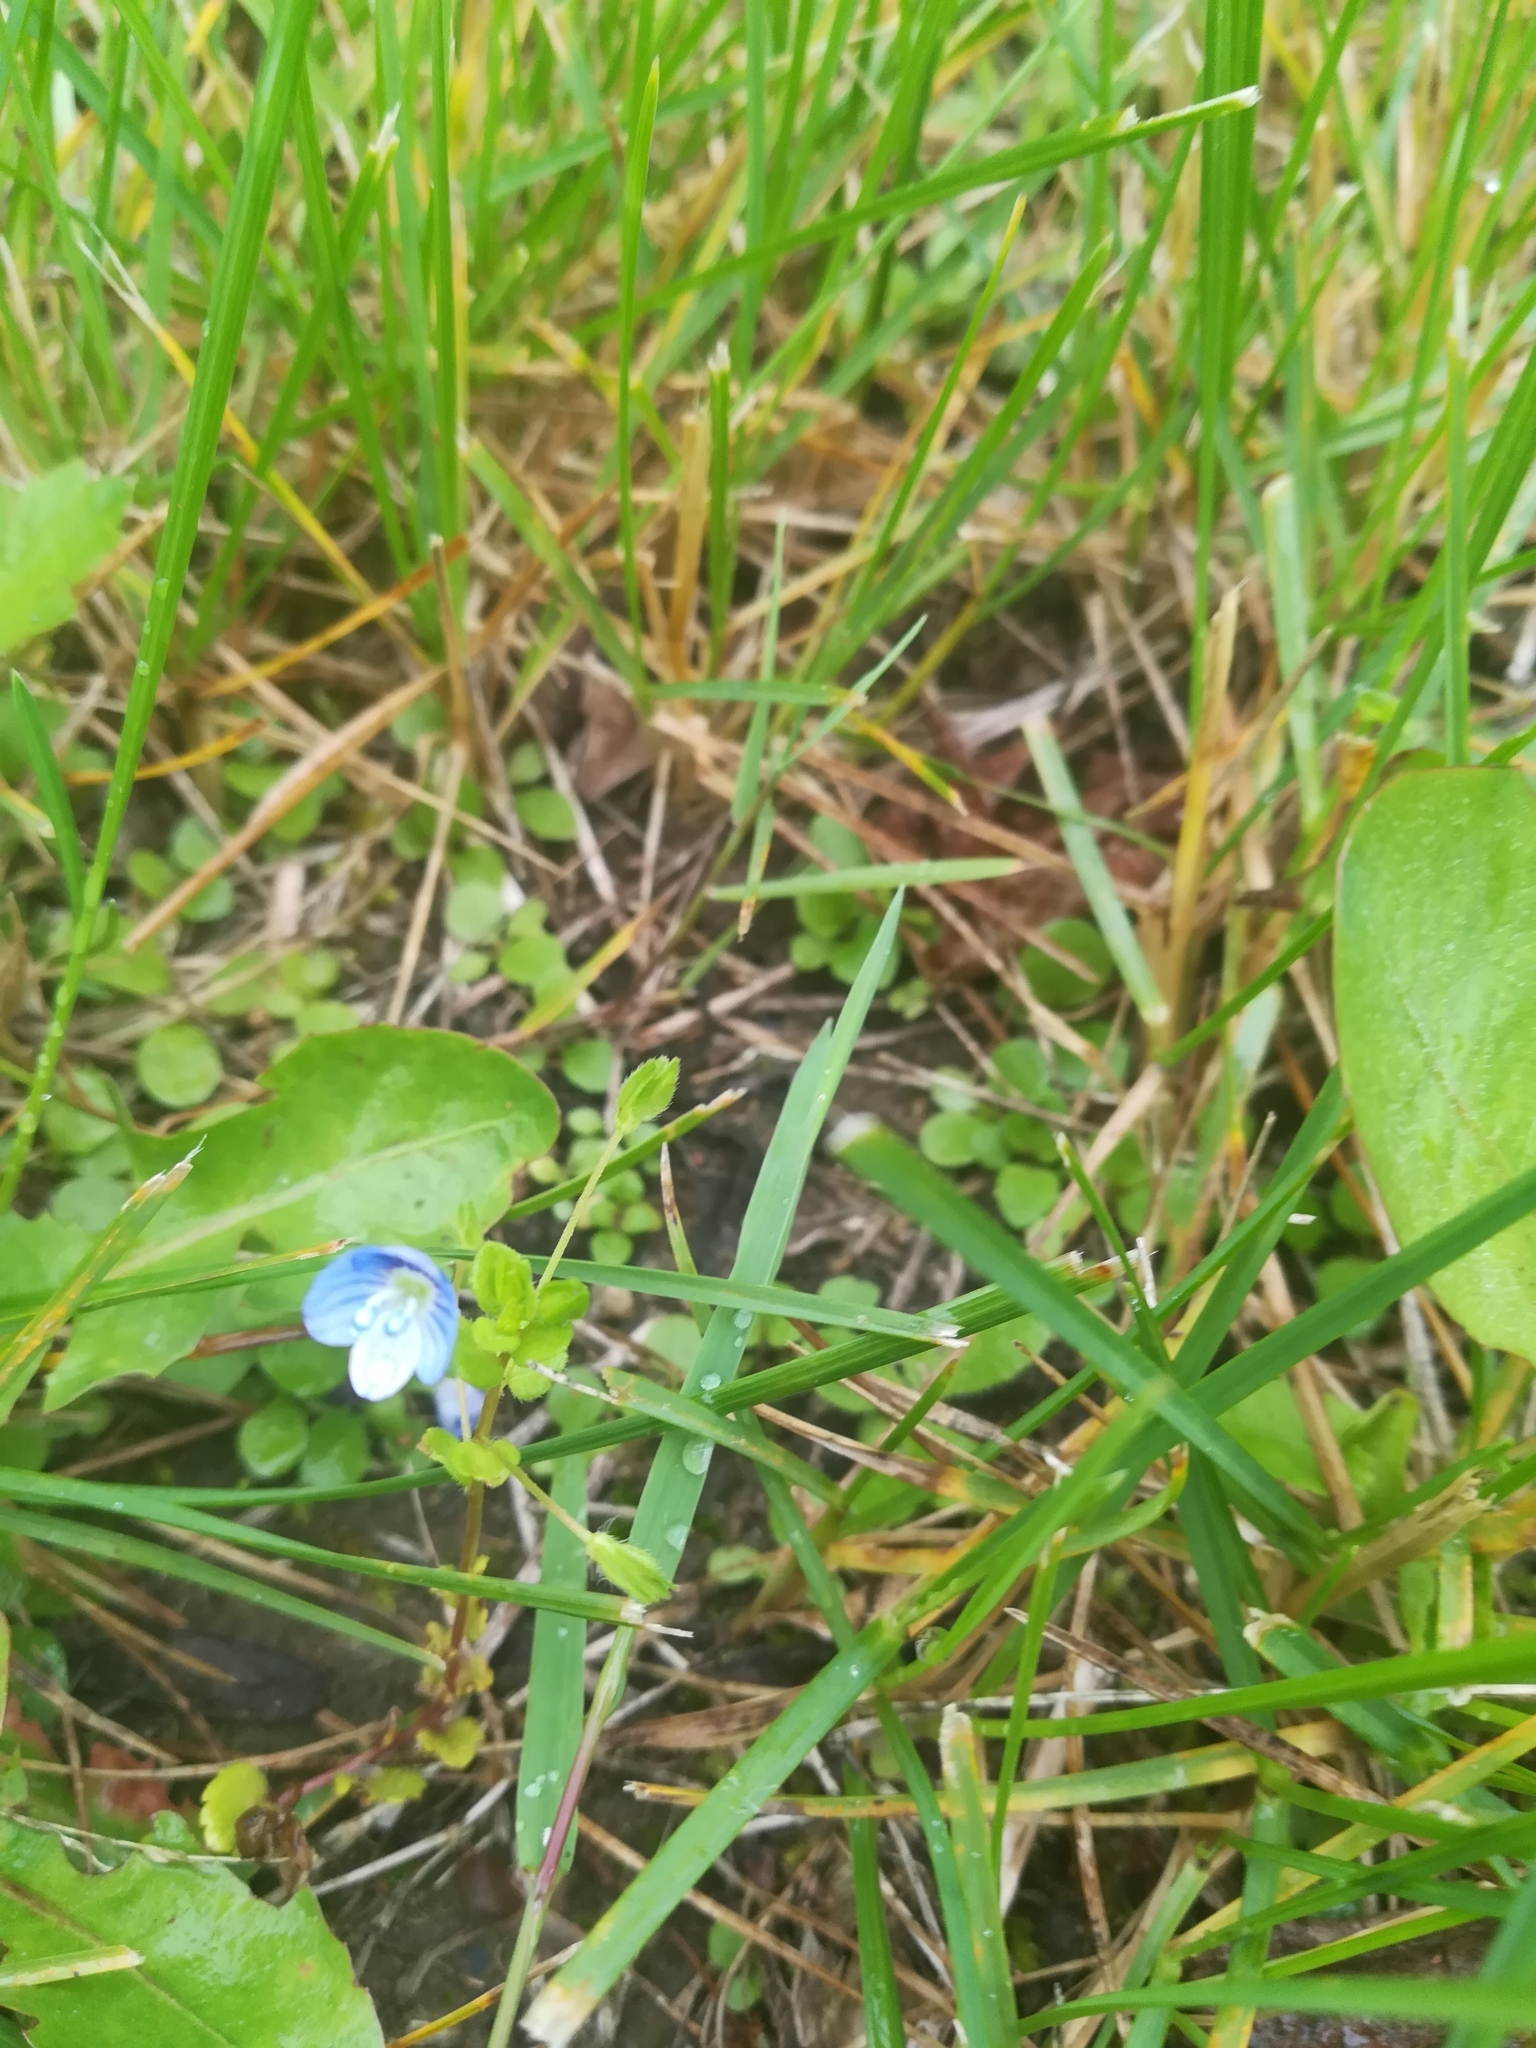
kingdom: Plantae
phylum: Tracheophyta
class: Magnoliopsida
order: Lamiales
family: Plantaginaceae
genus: Veronica
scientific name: Veronica persica
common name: Common field-speedwell
